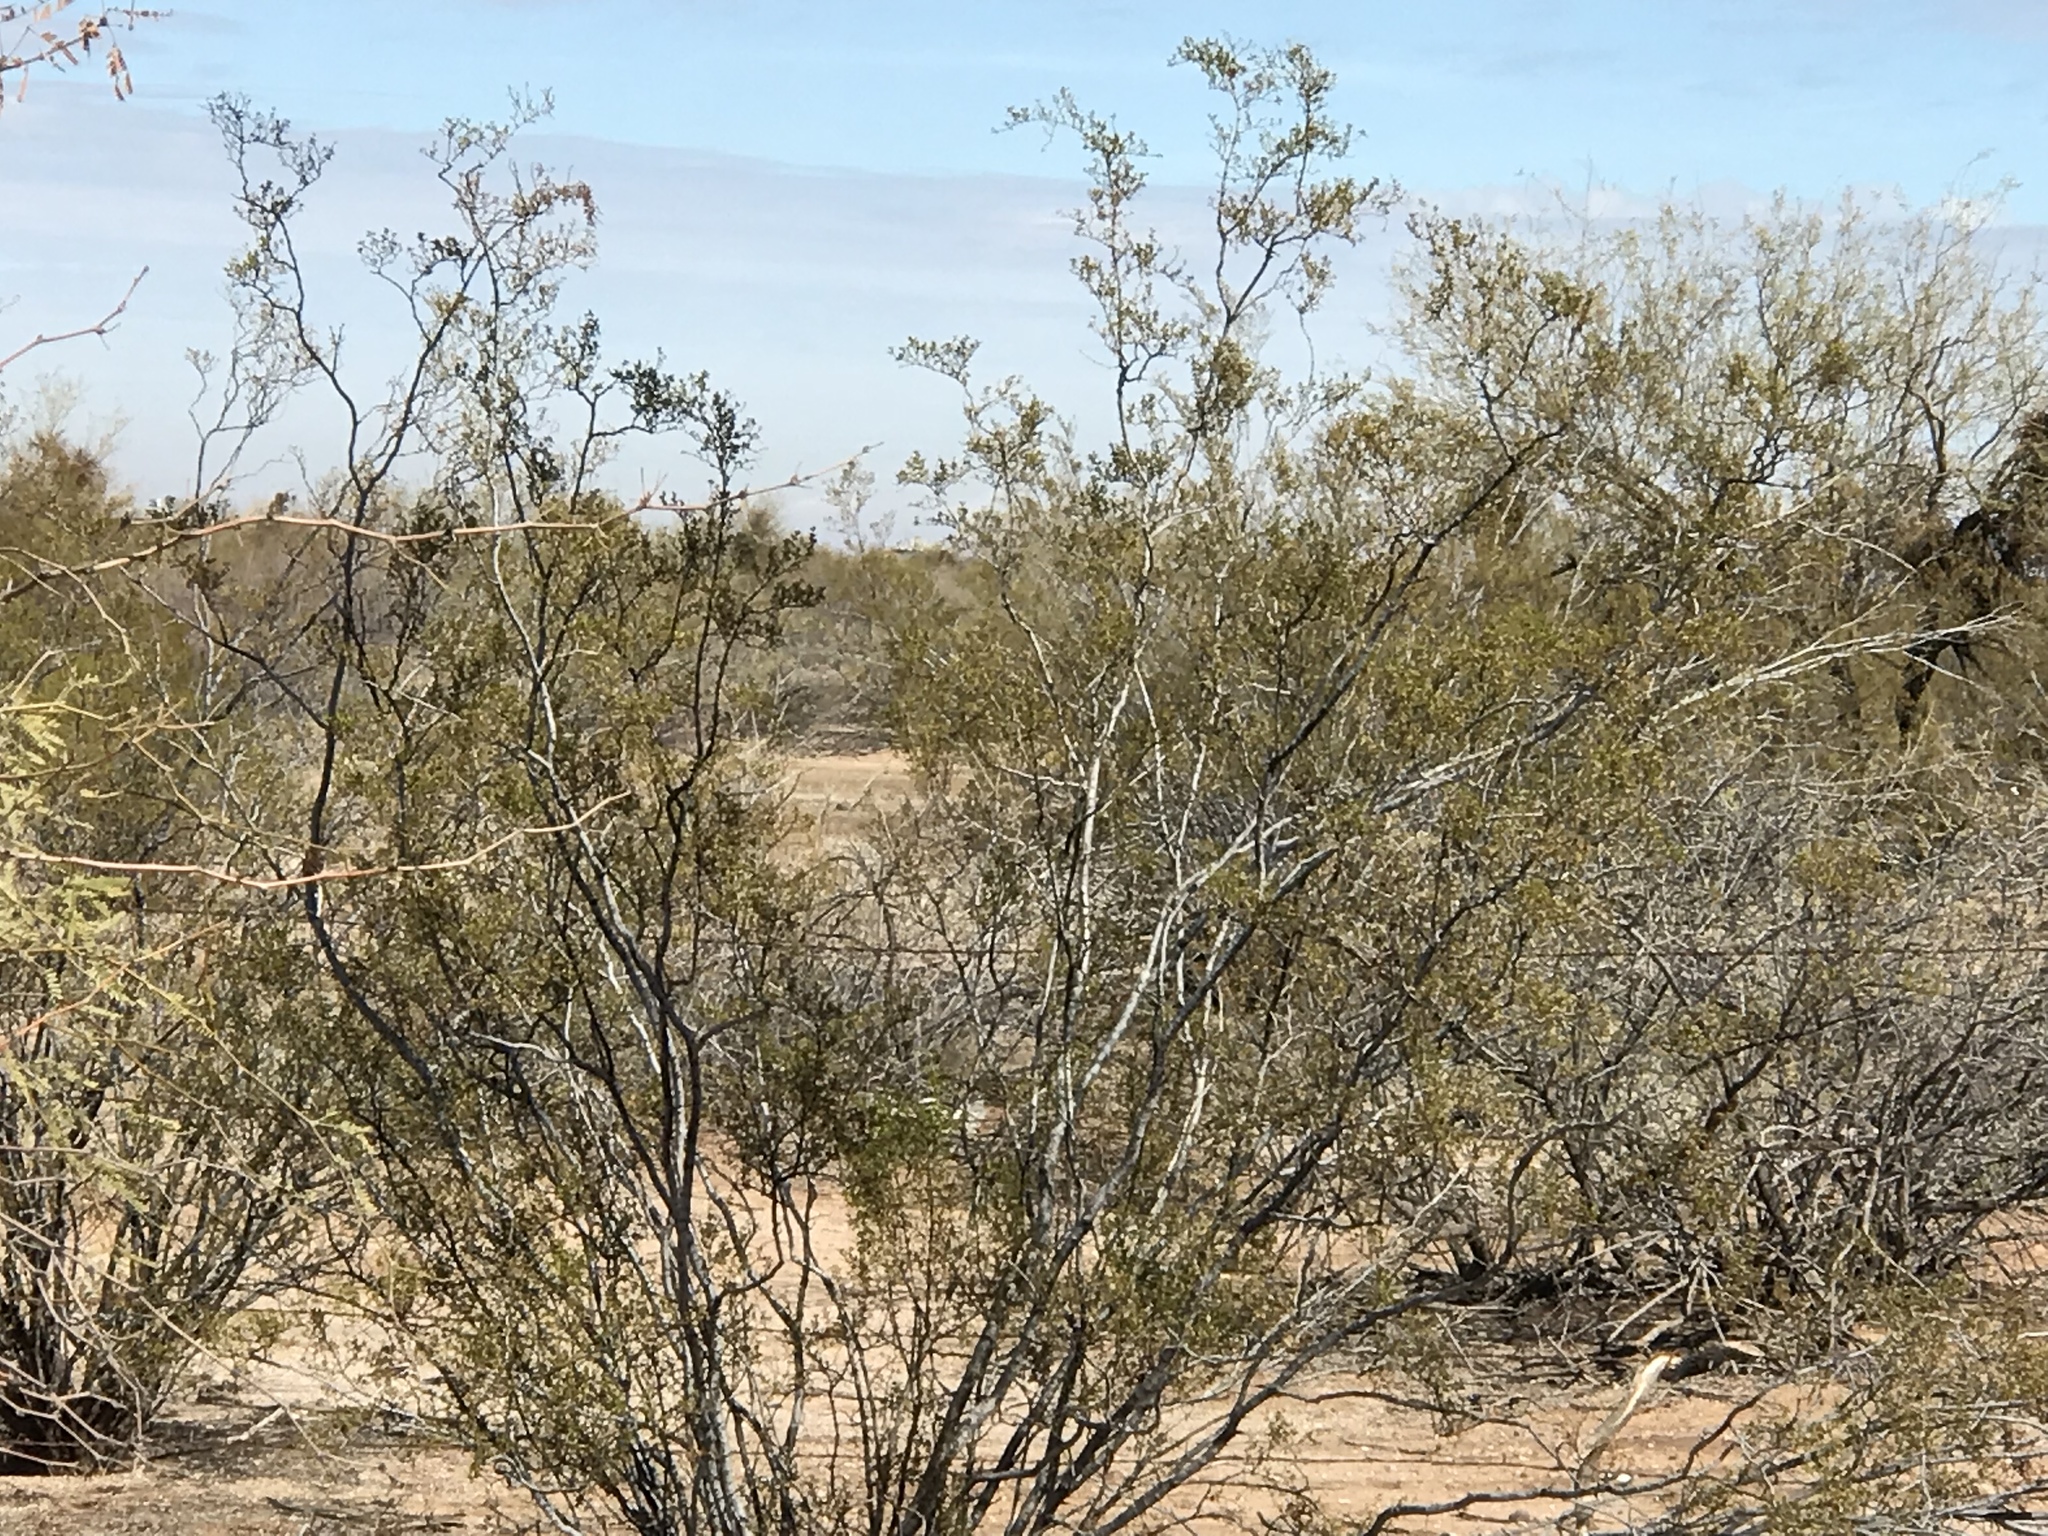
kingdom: Plantae
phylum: Tracheophyta
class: Magnoliopsida
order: Zygophyllales
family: Zygophyllaceae
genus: Larrea
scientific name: Larrea tridentata
